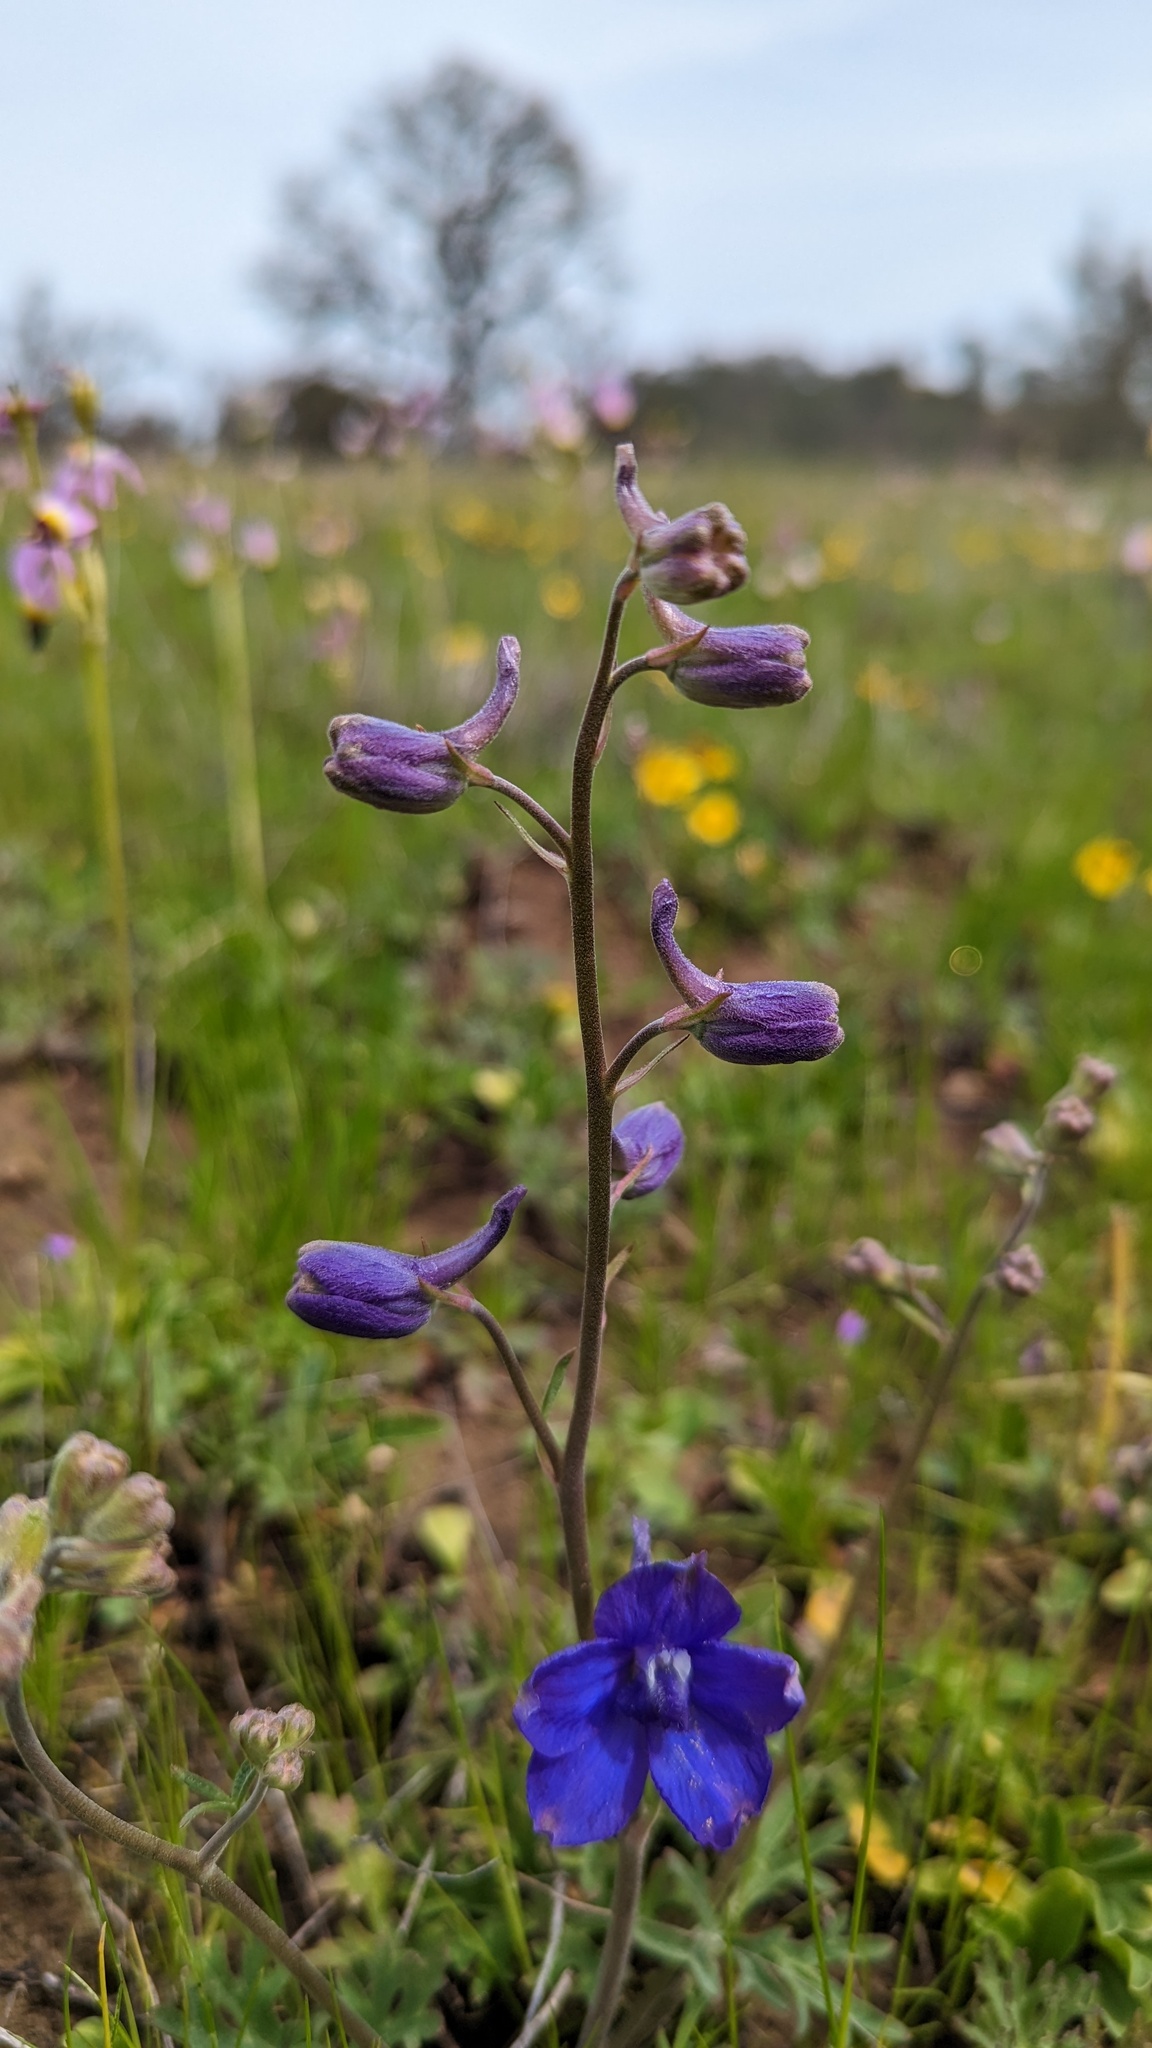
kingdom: Plantae
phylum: Tracheophyta
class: Magnoliopsida
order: Ranunculales
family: Ranunculaceae
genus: Delphinium
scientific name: Delphinium variegatum
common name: Royal larkspur
